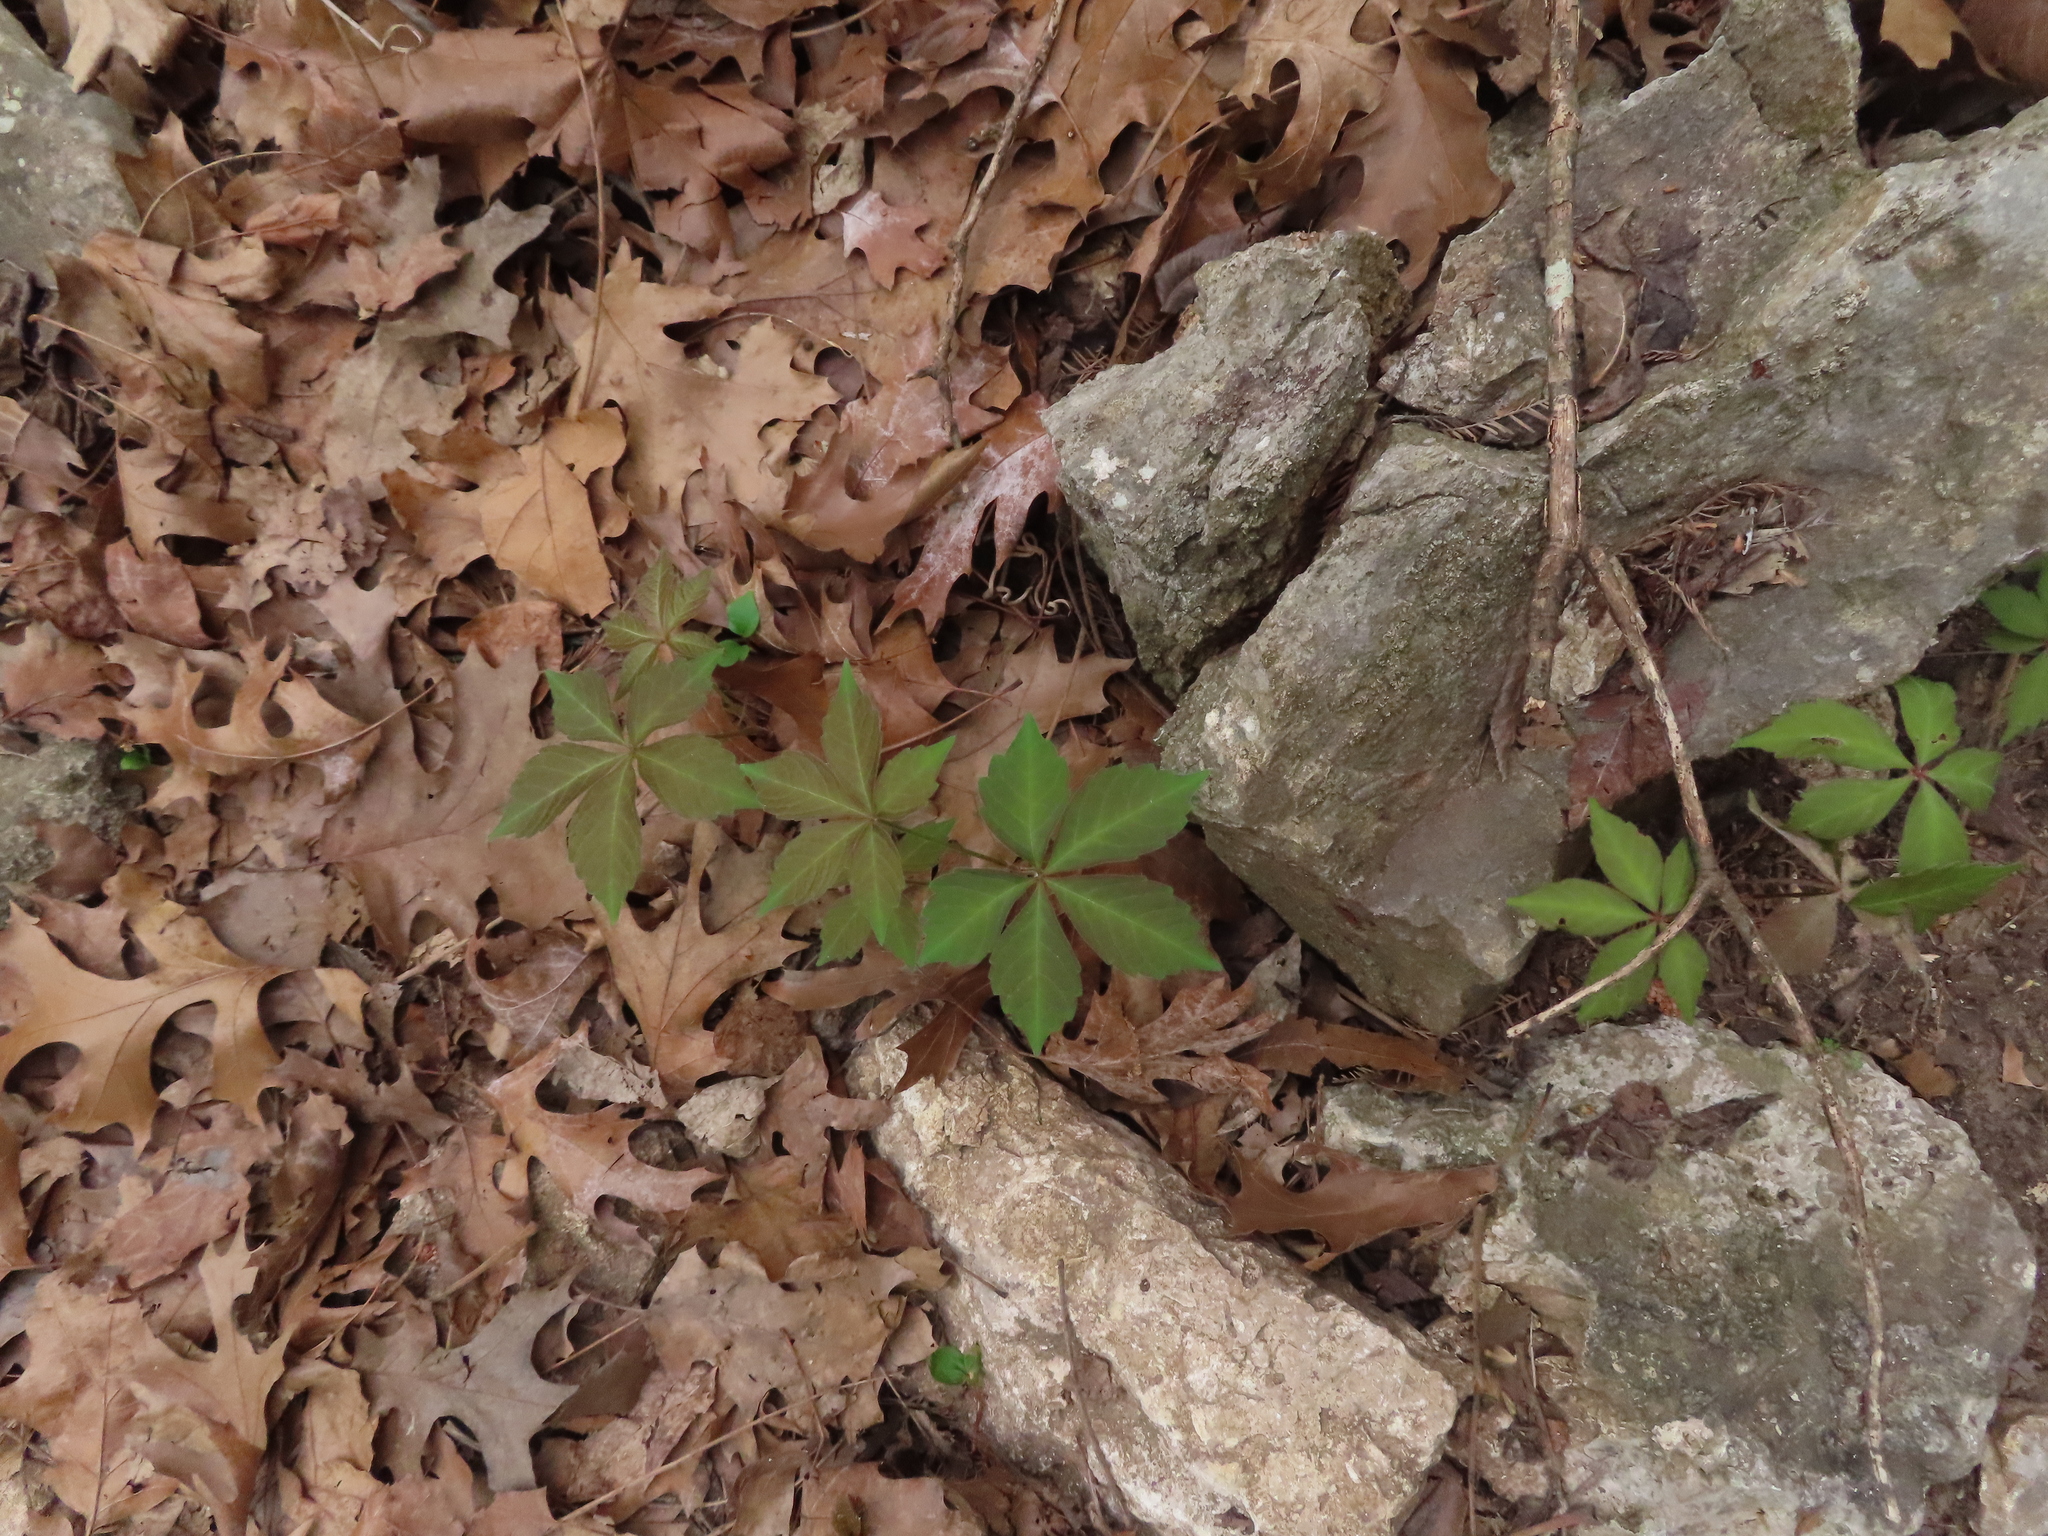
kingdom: Plantae
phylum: Tracheophyta
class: Magnoliopsida
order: Vitales
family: Vitaceae
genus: Parthenocissus
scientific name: Parthenocissus quinquefolia
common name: Virginia-creeper
